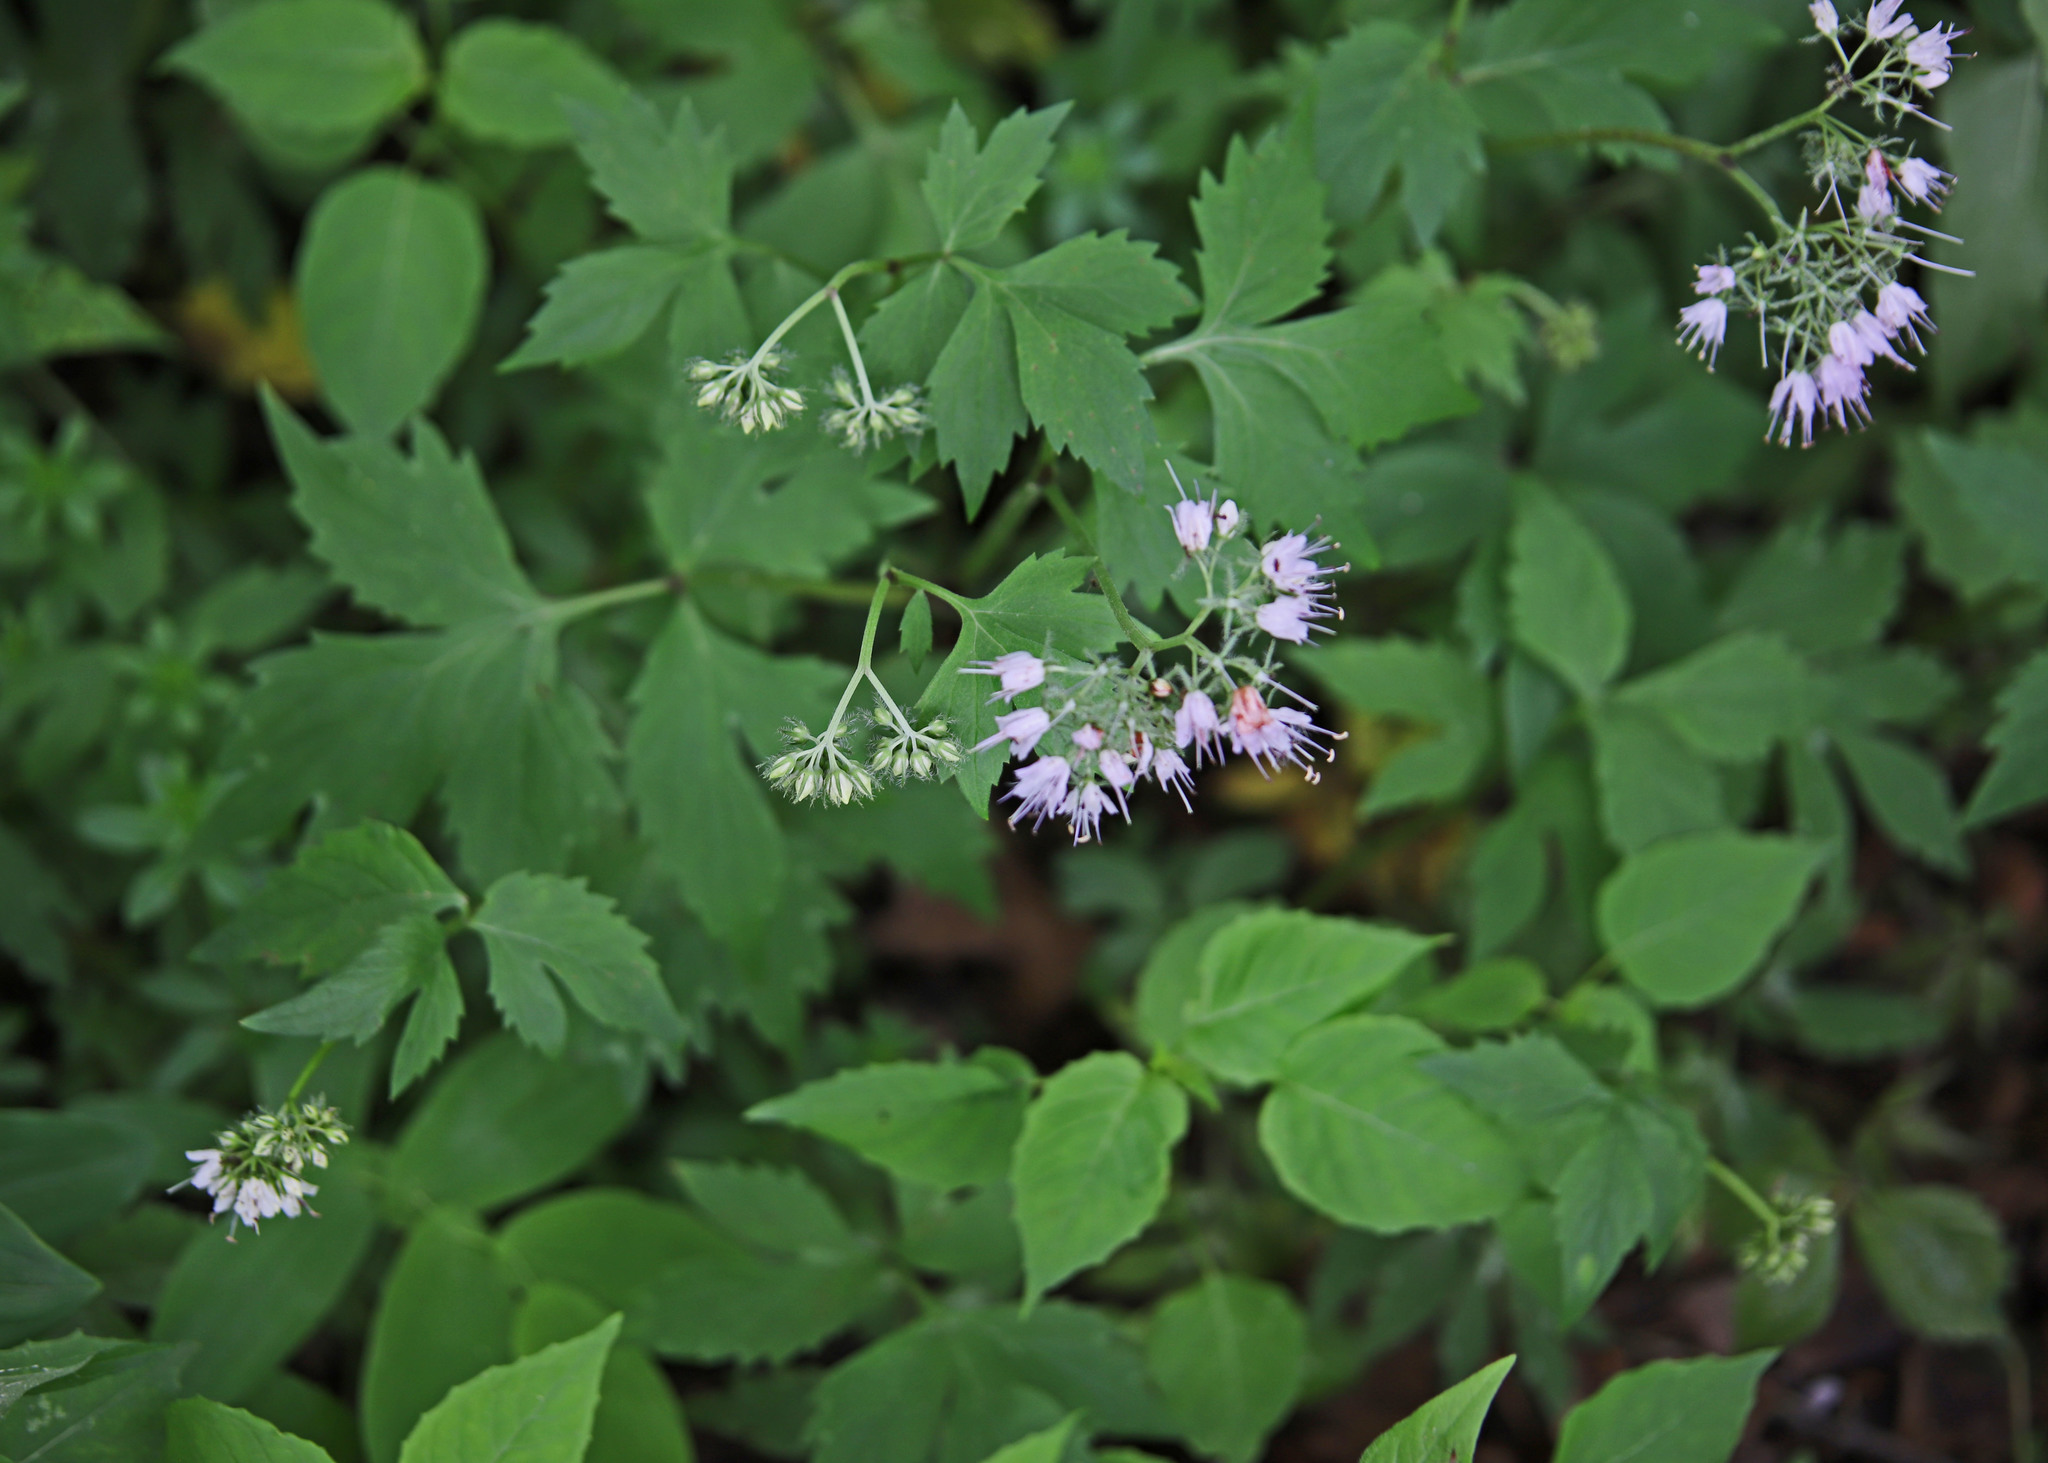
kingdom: Plantae
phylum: Tracheophyta
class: Magnoliopsida
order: Boraginales
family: Hydrophyllaceae
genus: Hydrophyllum
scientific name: Hydrophyllum virginianum
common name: Virginia waterleaf
